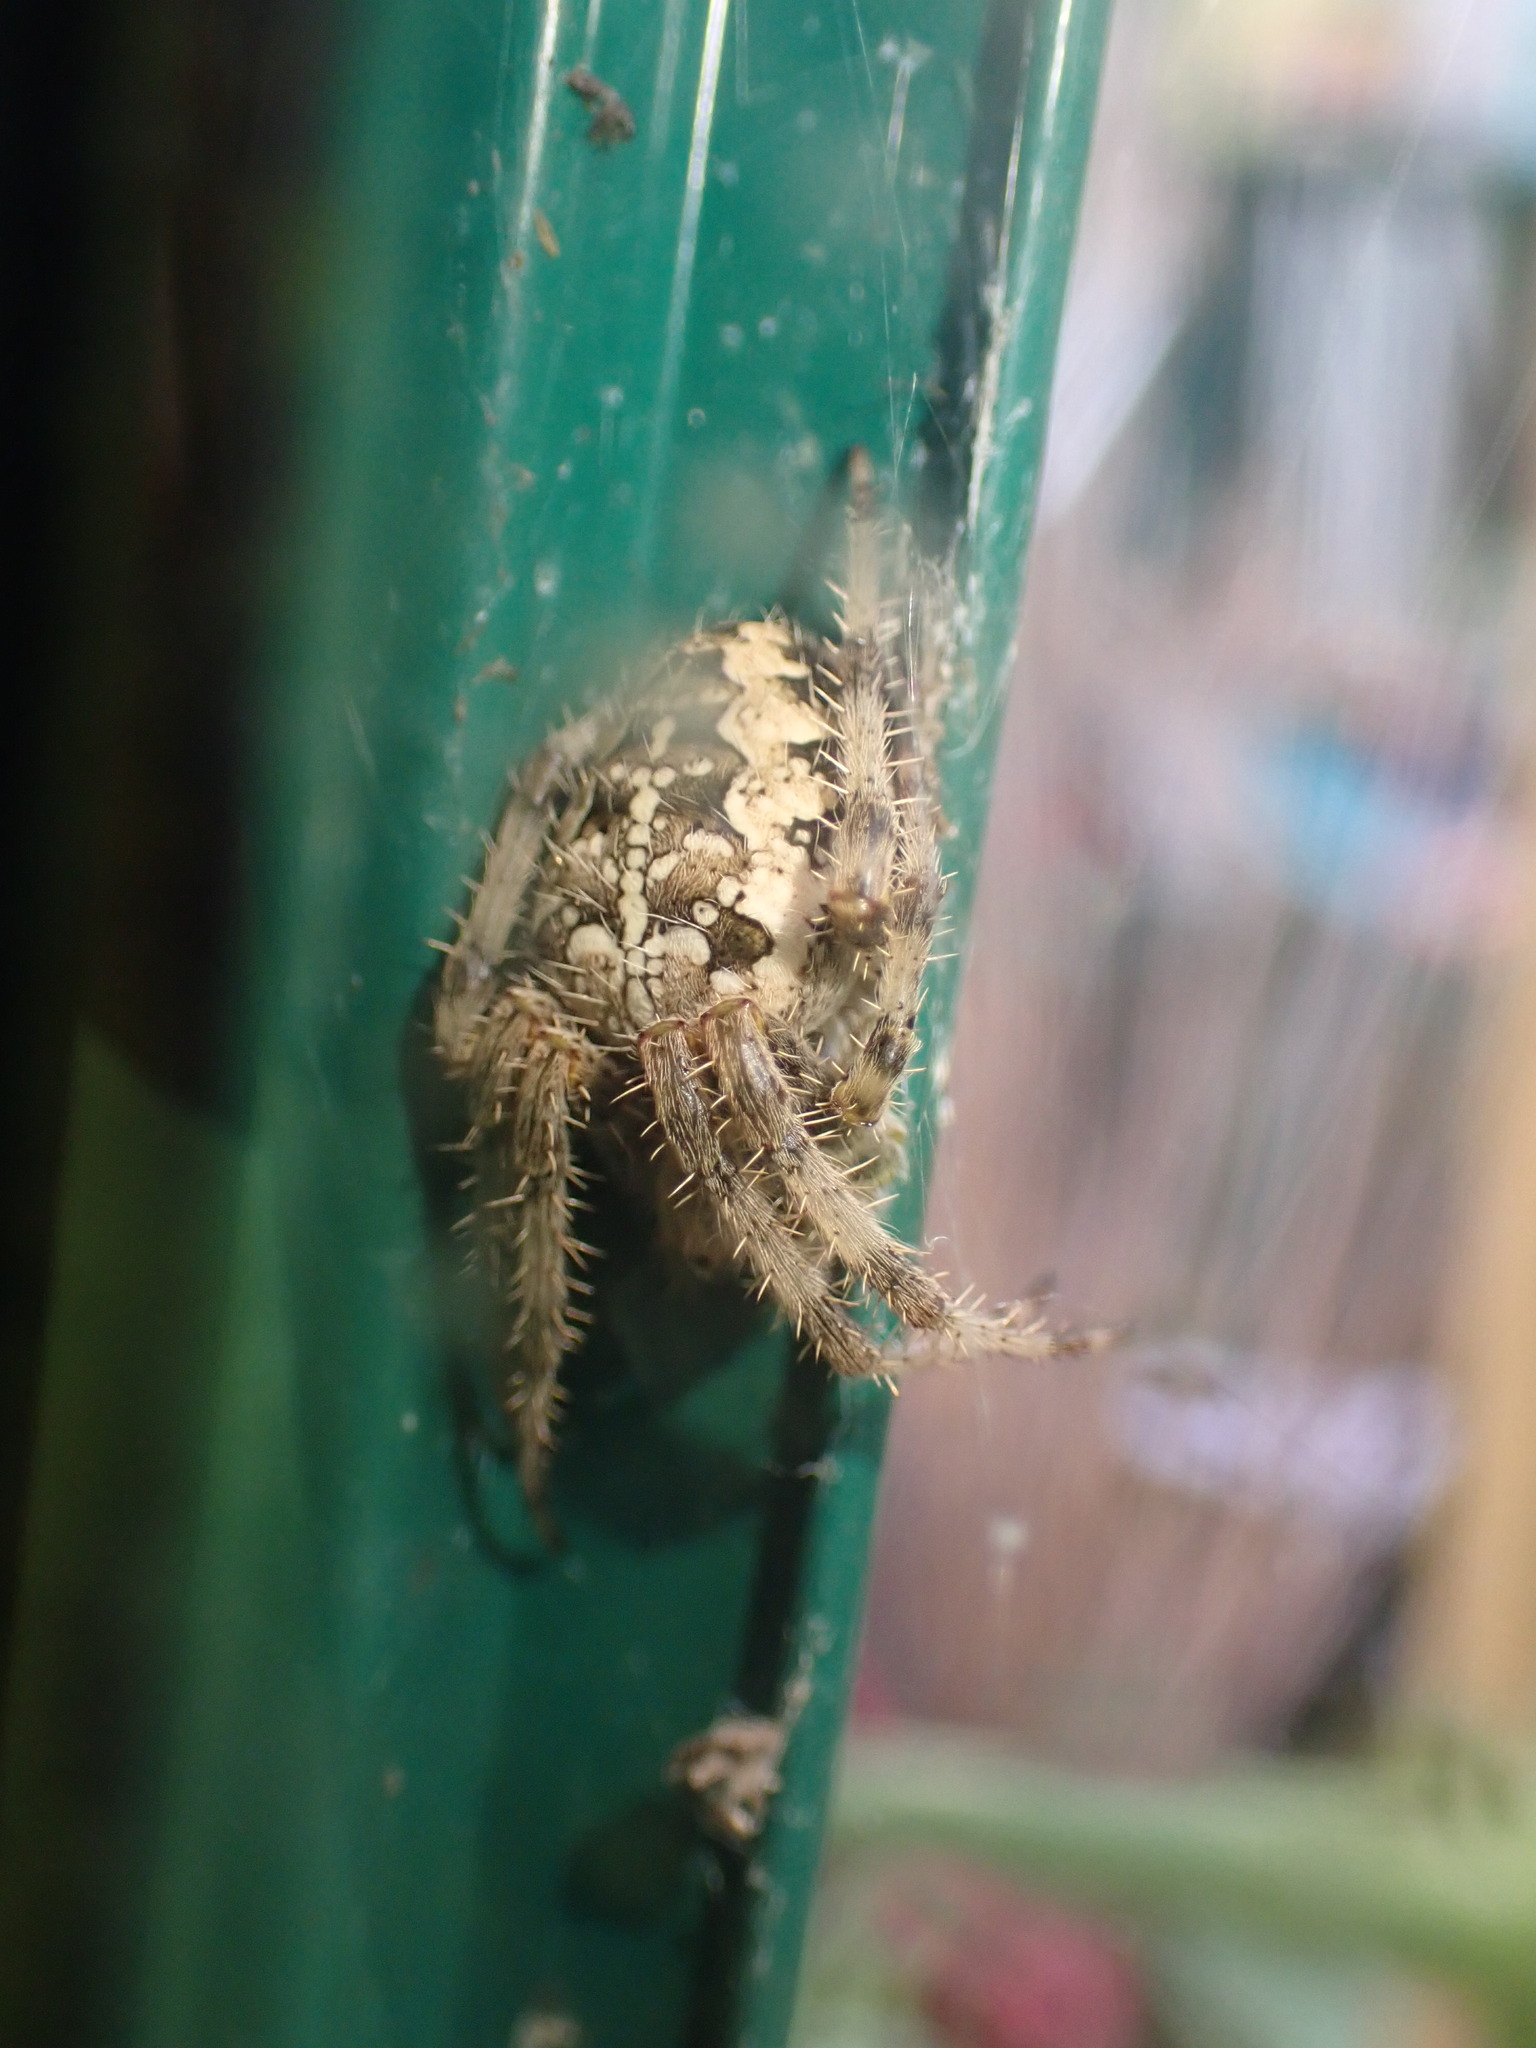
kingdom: Animalia
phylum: Arthropoda
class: Arachnida
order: Araneae
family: Araneidae
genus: Araneus
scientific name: Araneus diadematus
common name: Cross orbweaver
